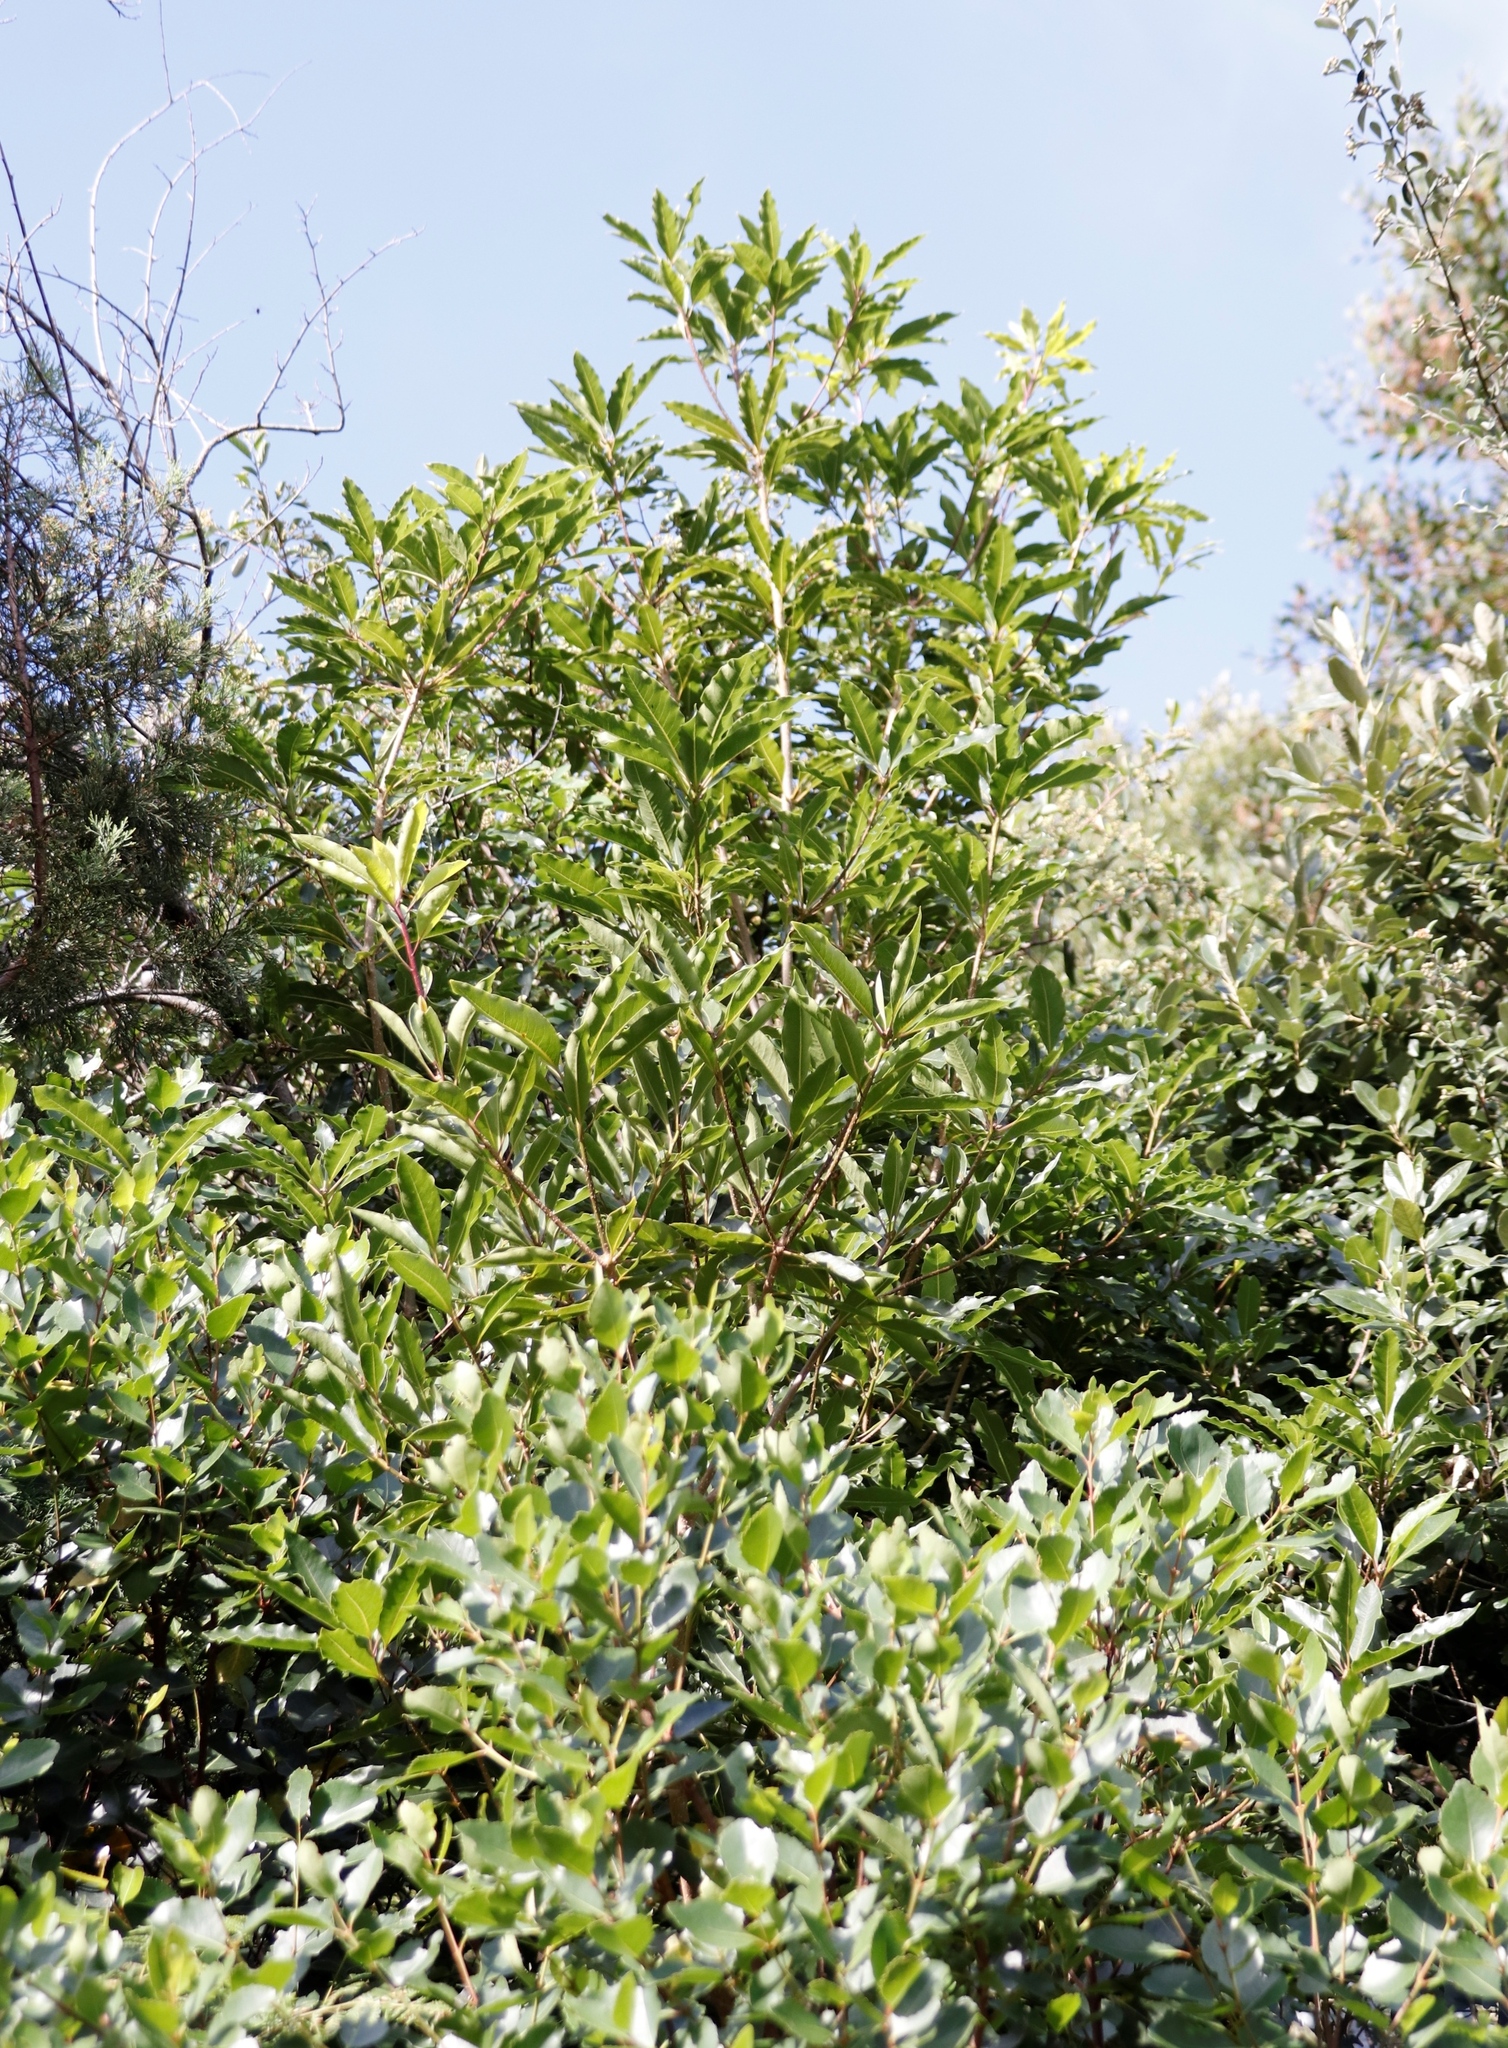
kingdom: Plantae
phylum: Tracheophyta
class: Magnoliopsida
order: Apiales
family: Pittosporaceae
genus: Pittosporum
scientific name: Pittosporum undulatum
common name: Australian cheesewood
